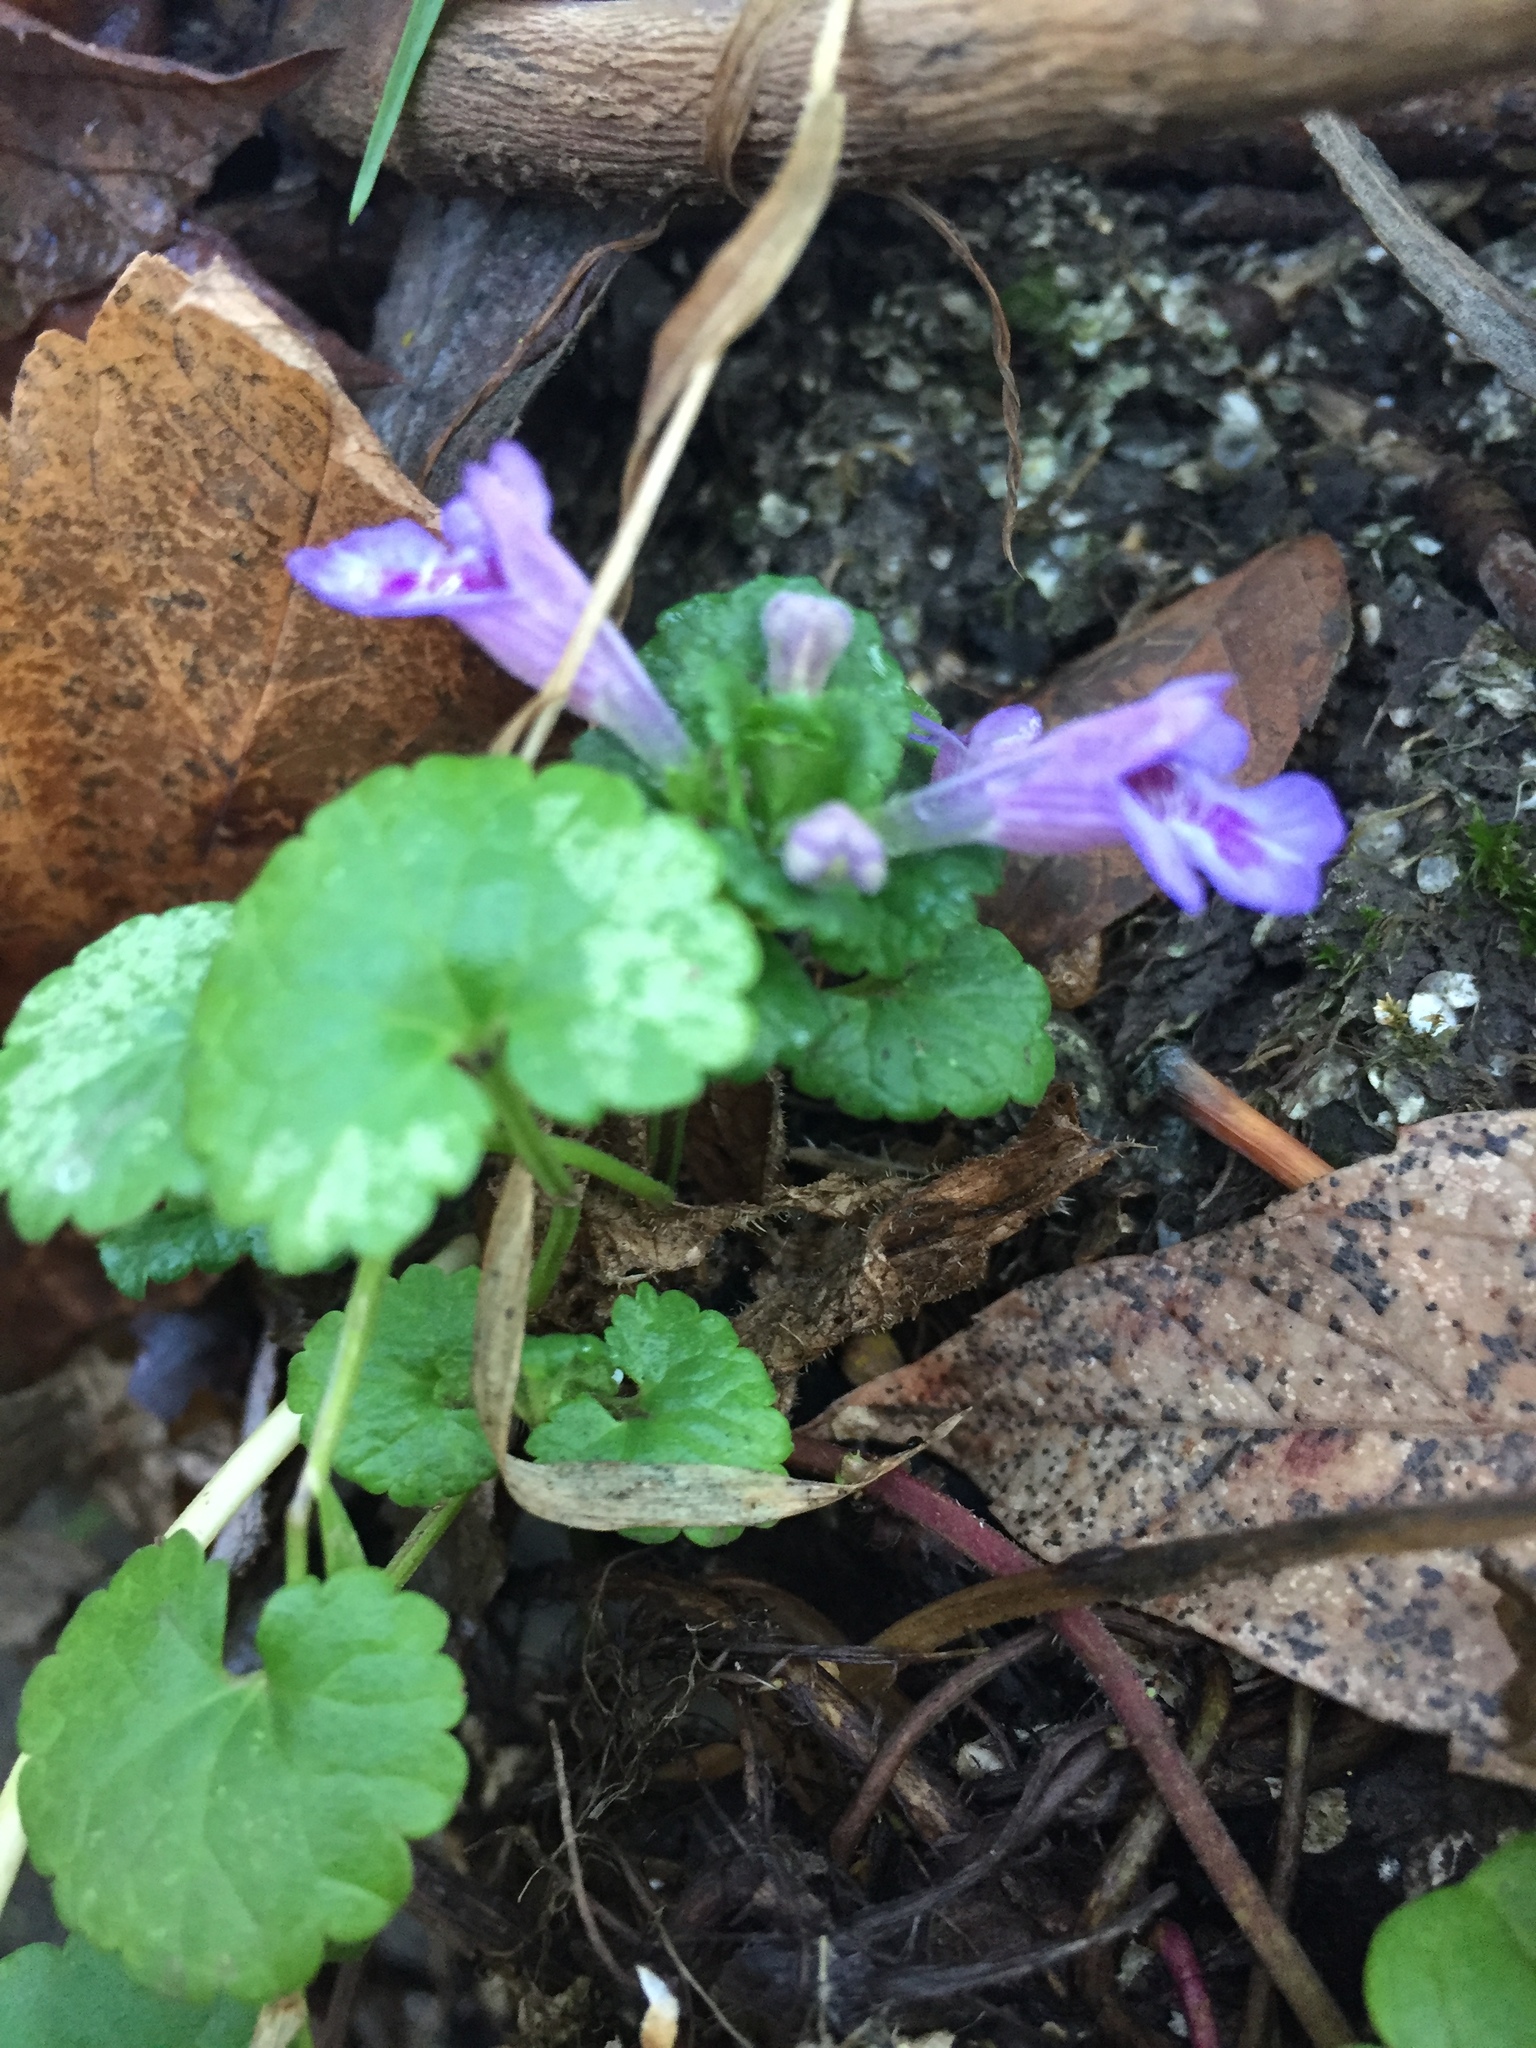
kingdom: Plantae
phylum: Tracheophyta
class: Magnoliopsida
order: Lamiales
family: Lamiaceae
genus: Glechoma
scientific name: Glechoma hederacea
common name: Ground ivy
